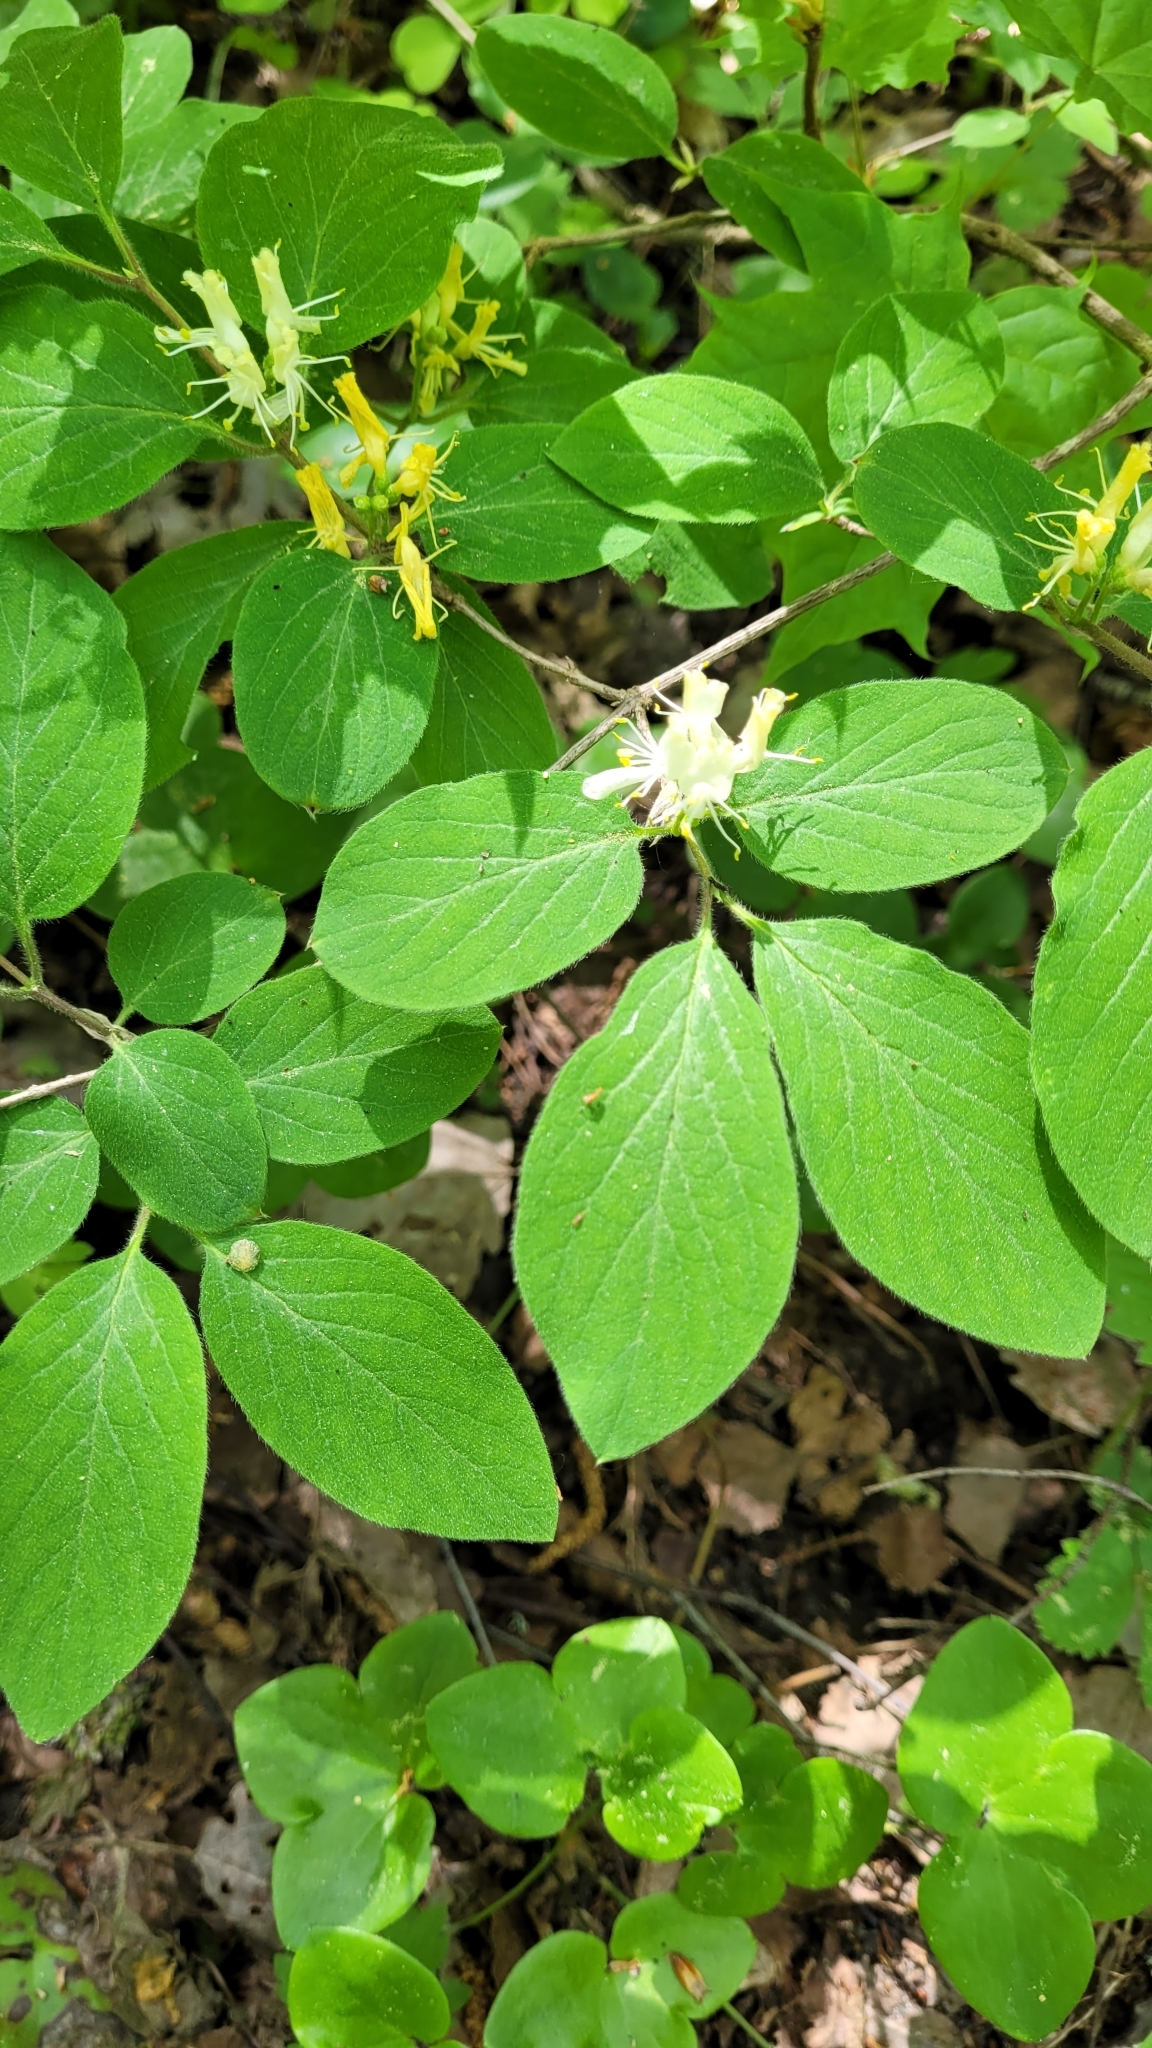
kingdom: Plantae
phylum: Tracheophyta
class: Magnoliopsida
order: Dipsacales
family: Caprifoliaceae
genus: Lonicera
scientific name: Lonicera xylosteum
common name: Fly honeysuckle
